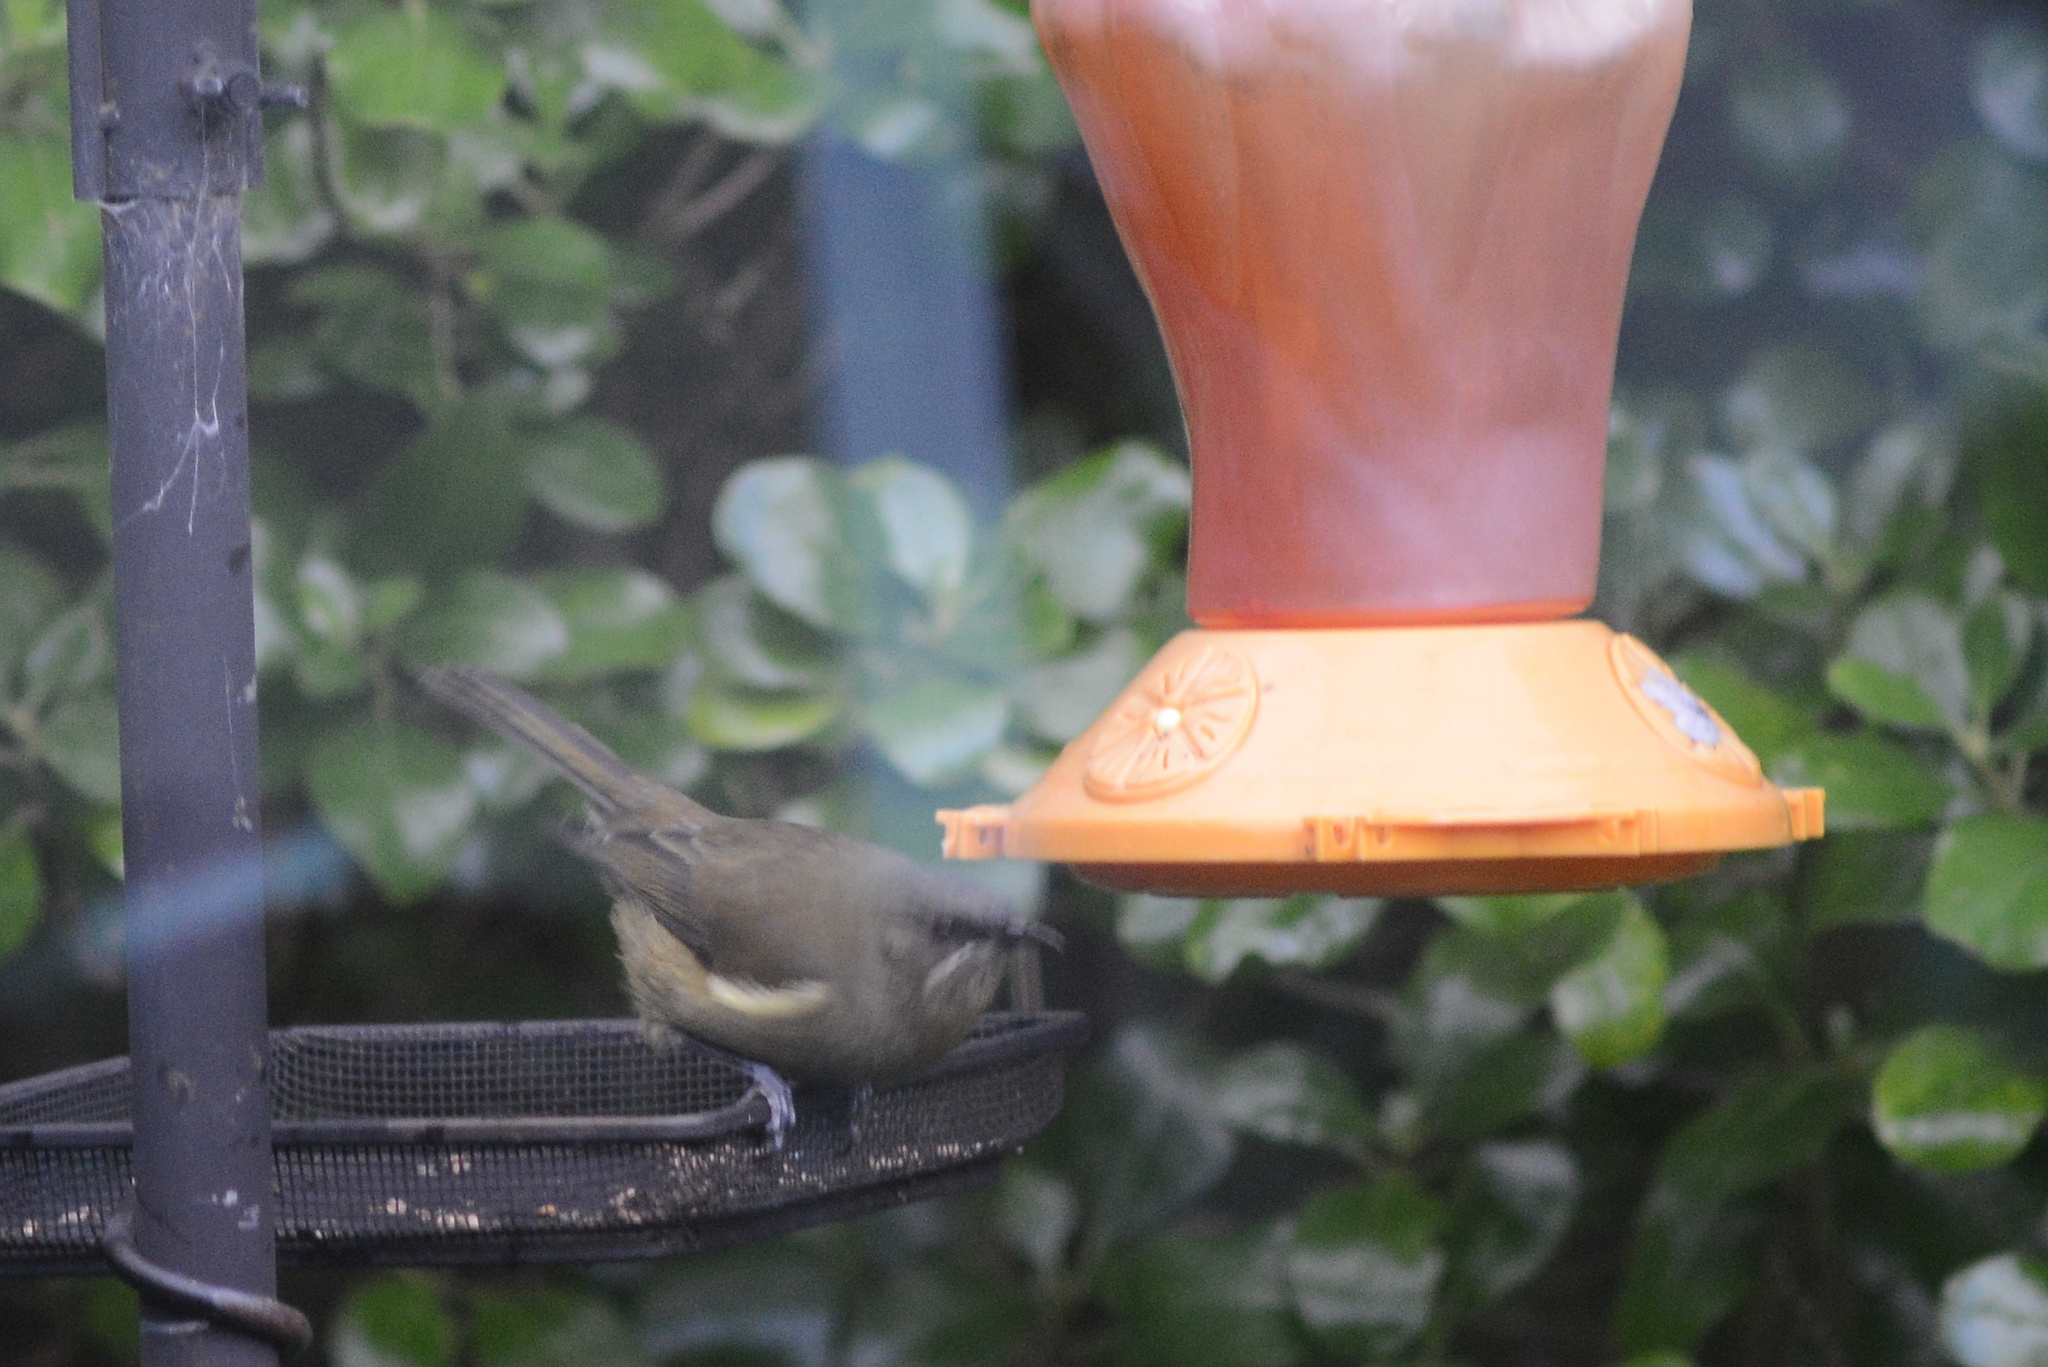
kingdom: Animalia
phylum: Chordata
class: Aves
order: Passeriformes
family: Meliphagidae
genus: Anthornis
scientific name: Anthornis melanura
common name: New zealand bellbird
